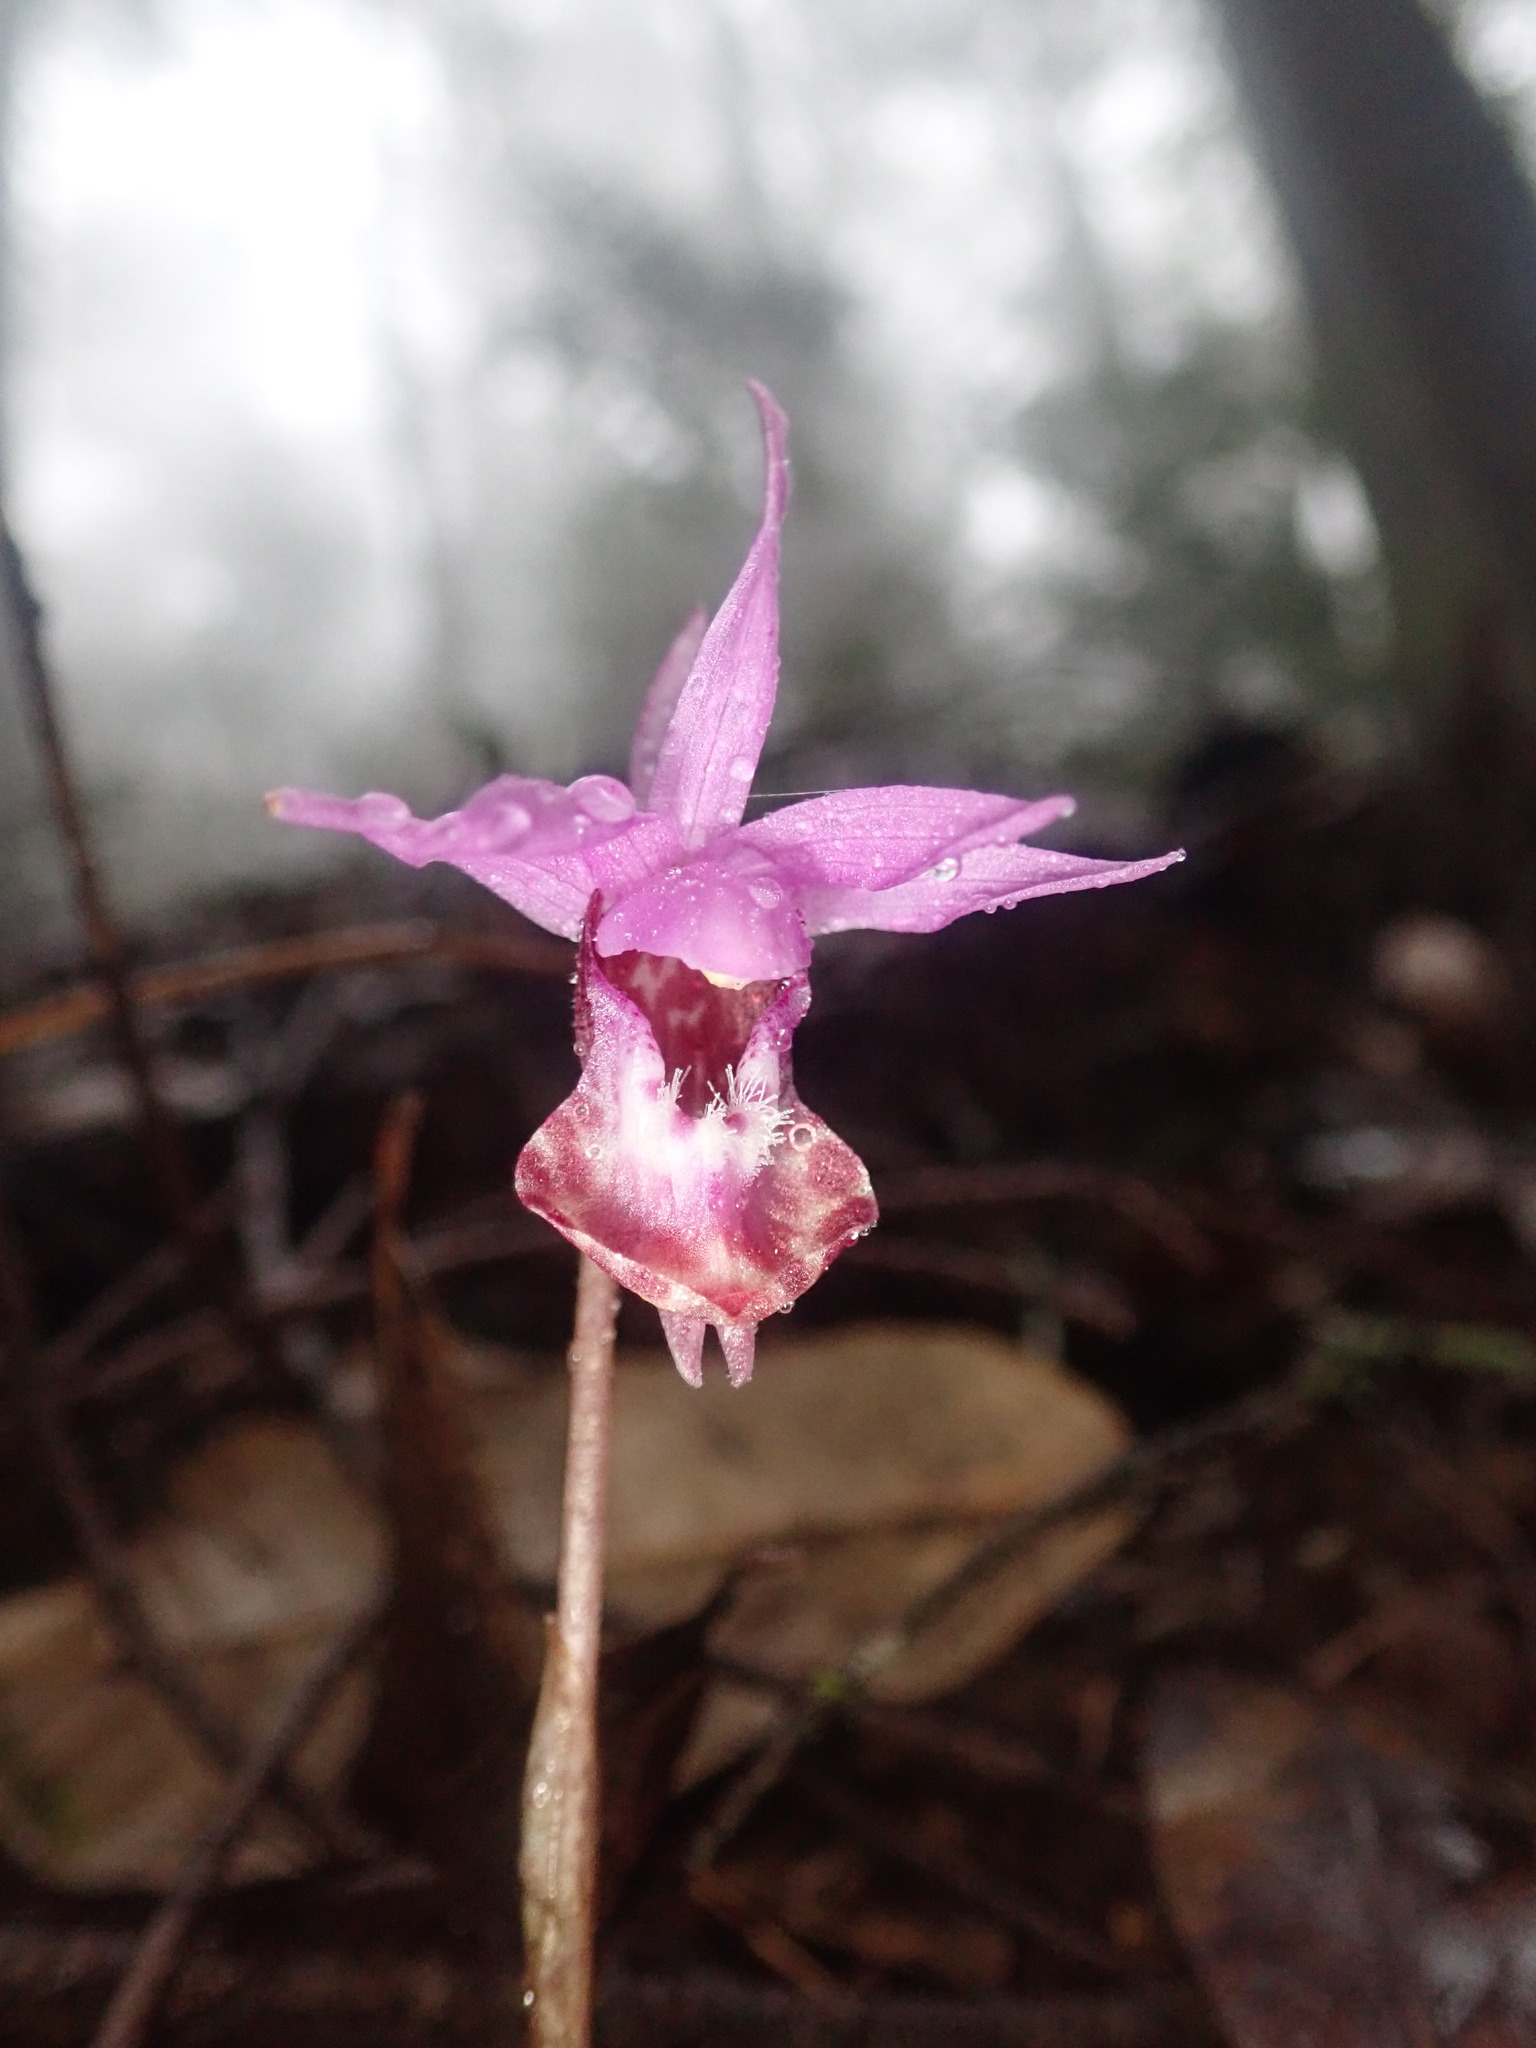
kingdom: Plantae
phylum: Tracheophyta
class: Liliopsida
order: Asparagales
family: Orchidaceae
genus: Calypso
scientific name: Calypso bulbosa
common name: Calypso
